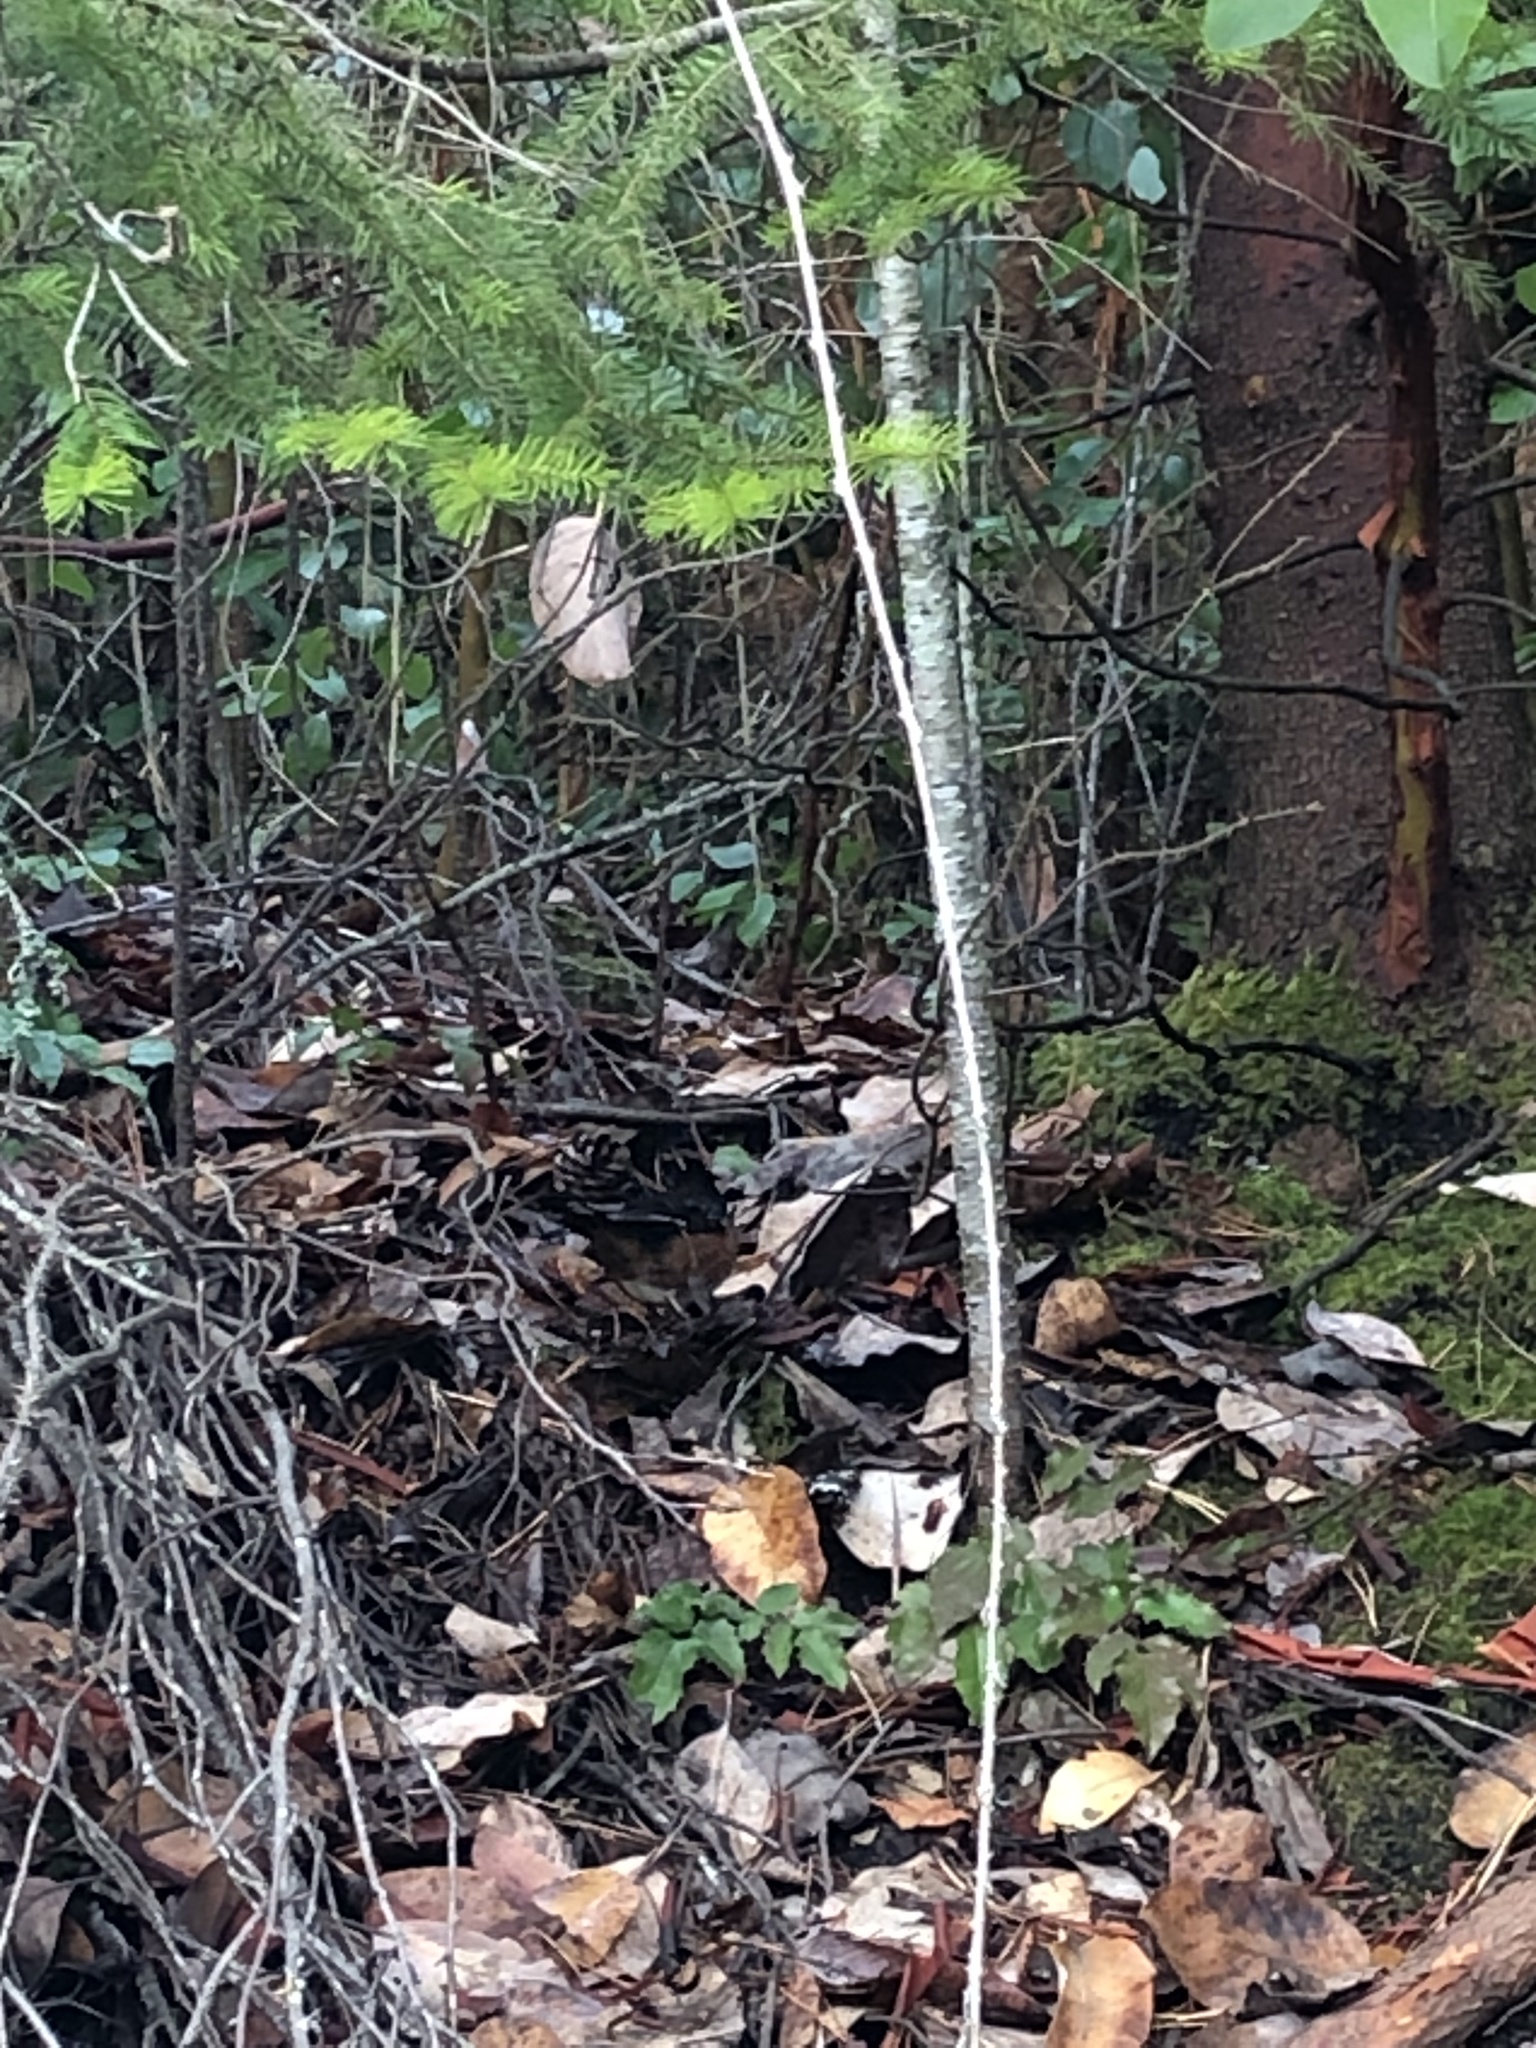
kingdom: Animalia
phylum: Chordata
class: Aves
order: Passeriformes
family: Passerellidae
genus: Pipilo
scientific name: Pipilo maculatus
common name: Spotted towhee
